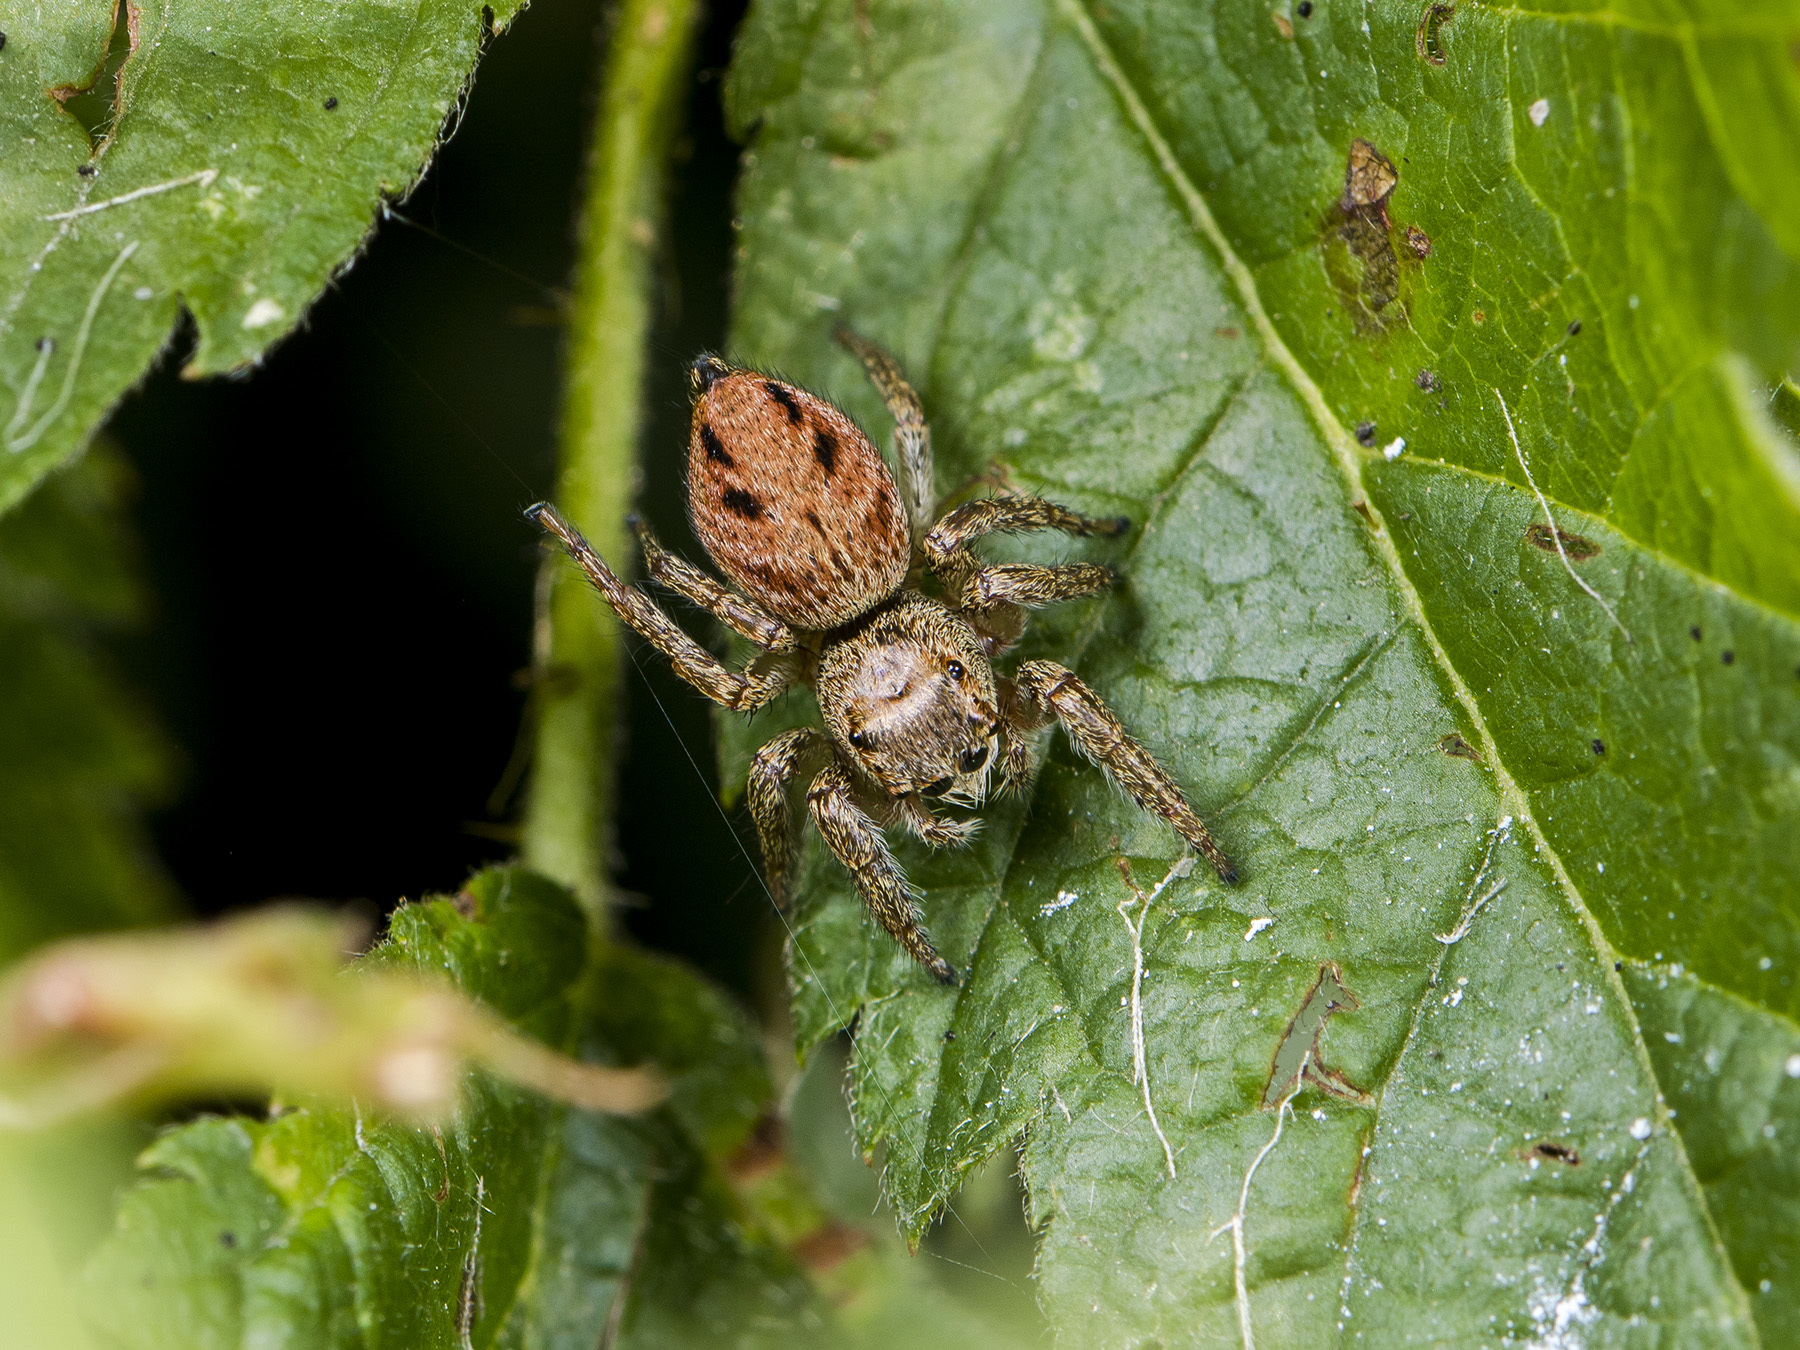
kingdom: Animalia
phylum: Arthropoda
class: Arachnida
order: Araneae
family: Salticidae
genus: Evarcha
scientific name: Evarcha arcuata
